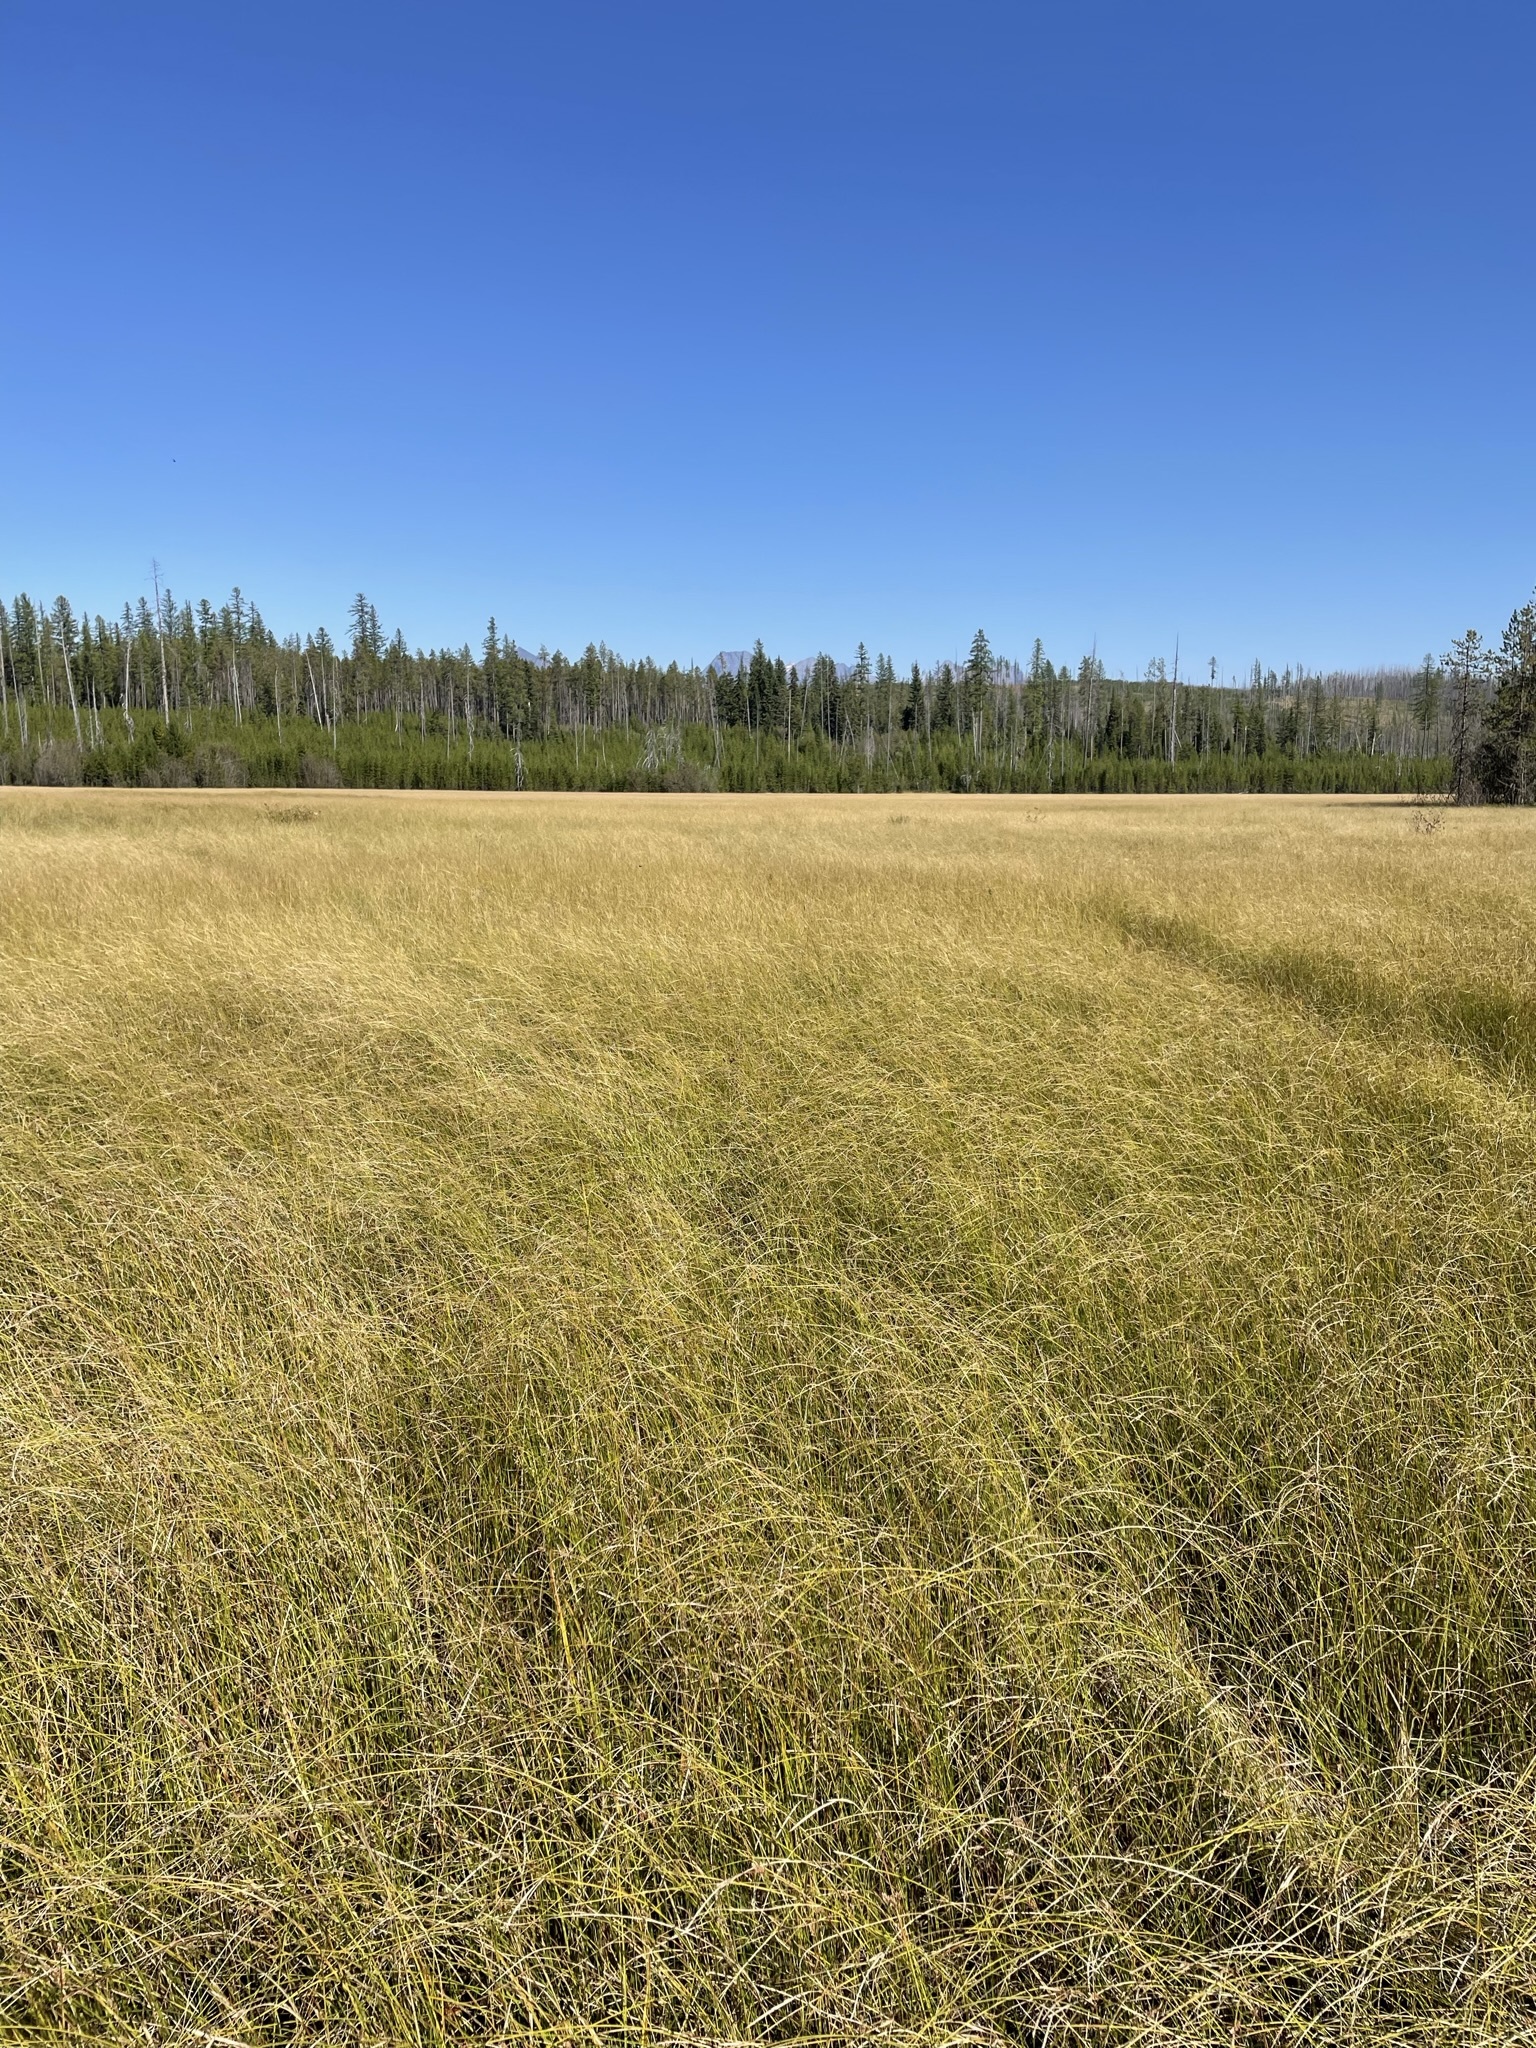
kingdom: Plantae
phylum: Tracheophyta
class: Liliopsida
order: Poales
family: Cyperaceae
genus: Carex
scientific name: Carex lasiocarpa
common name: Slender sedge
